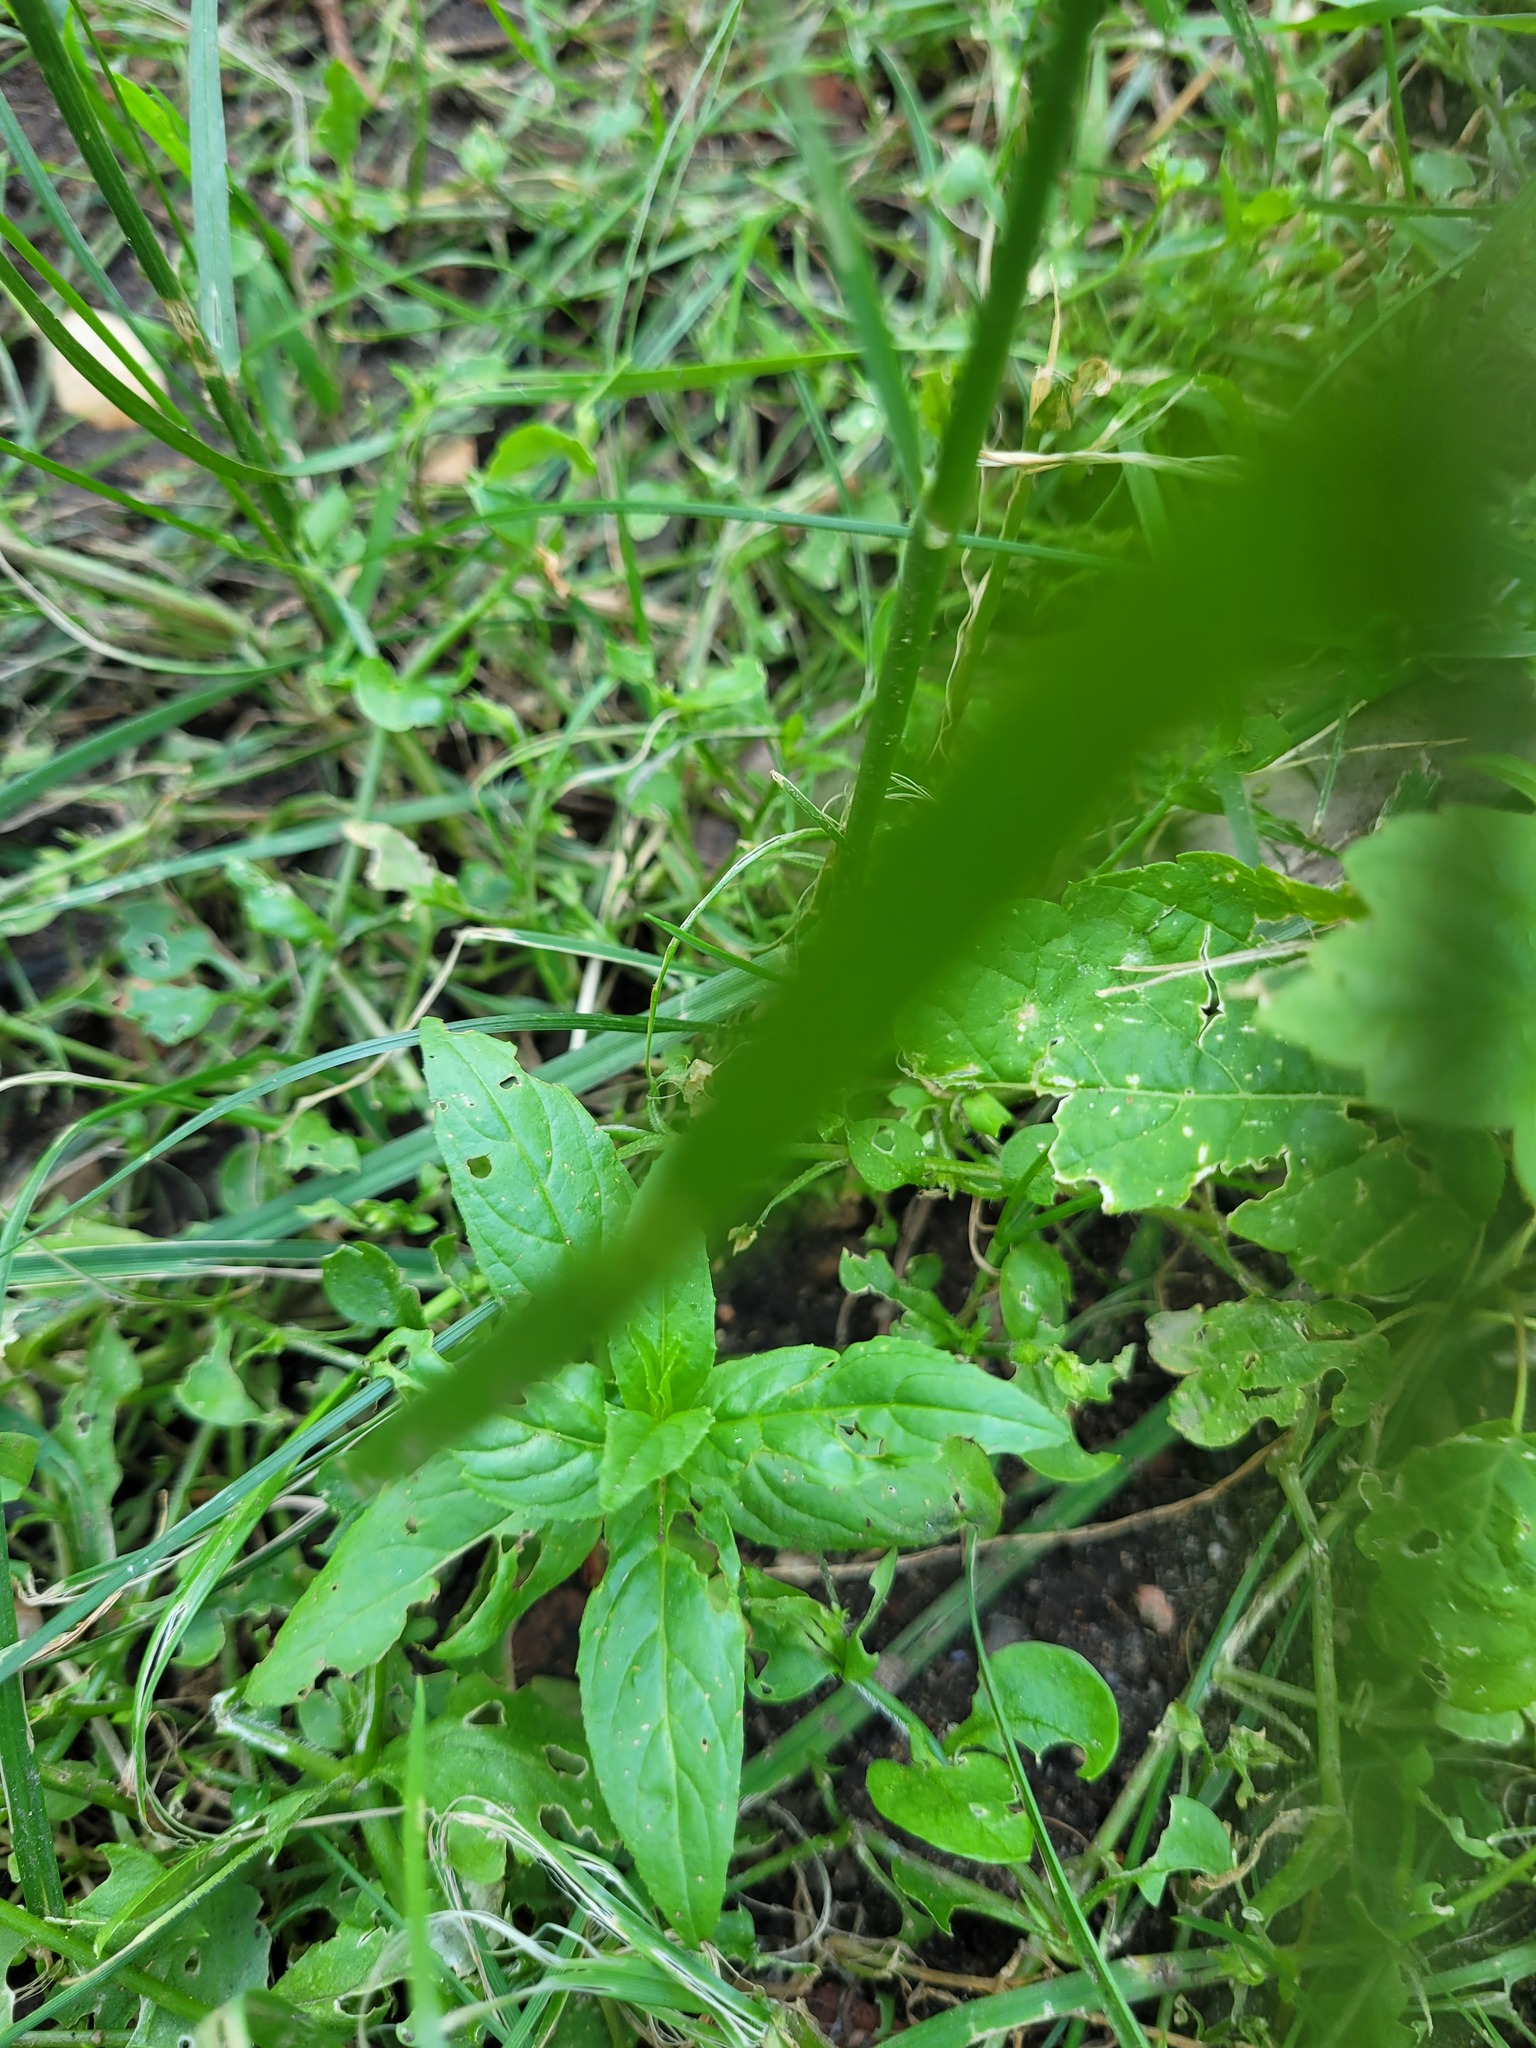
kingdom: Plantae
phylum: Tracheophyta
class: Magnoliopsida
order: Myrtales
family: Onagraceae
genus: Epilobium
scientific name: Epilobium
